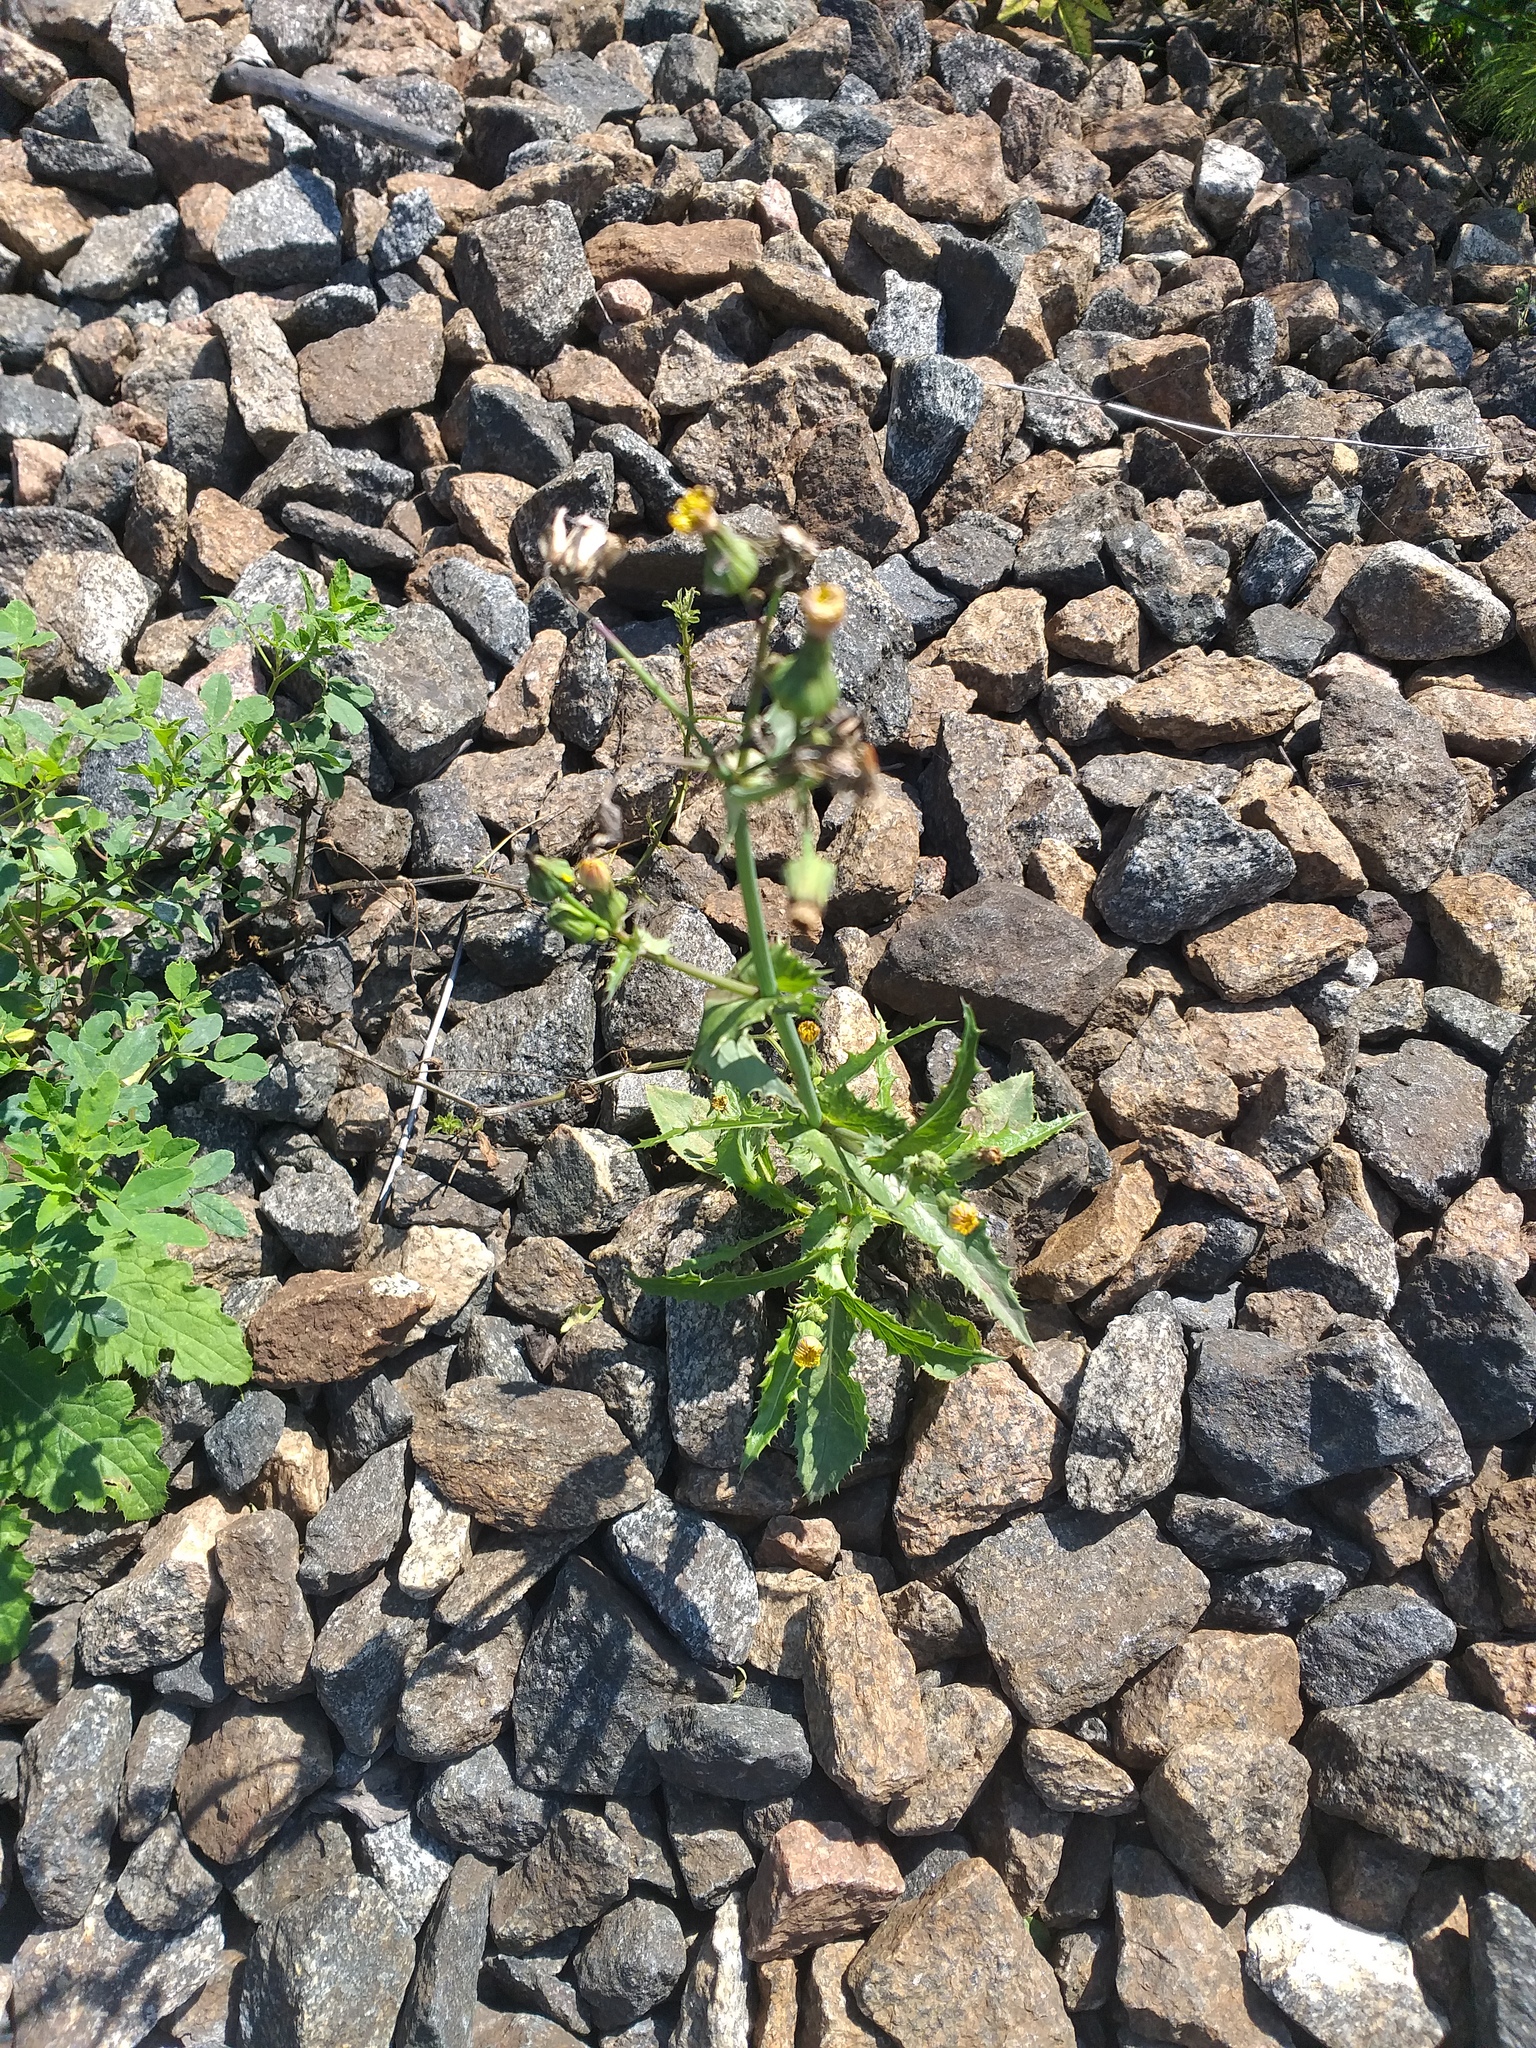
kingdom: Plantae
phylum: Tracheophyta
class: Magnoliopsida
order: Asterales
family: Asteraceae
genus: Sonchus
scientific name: Sonchus asper
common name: Prickly sow-thistle
